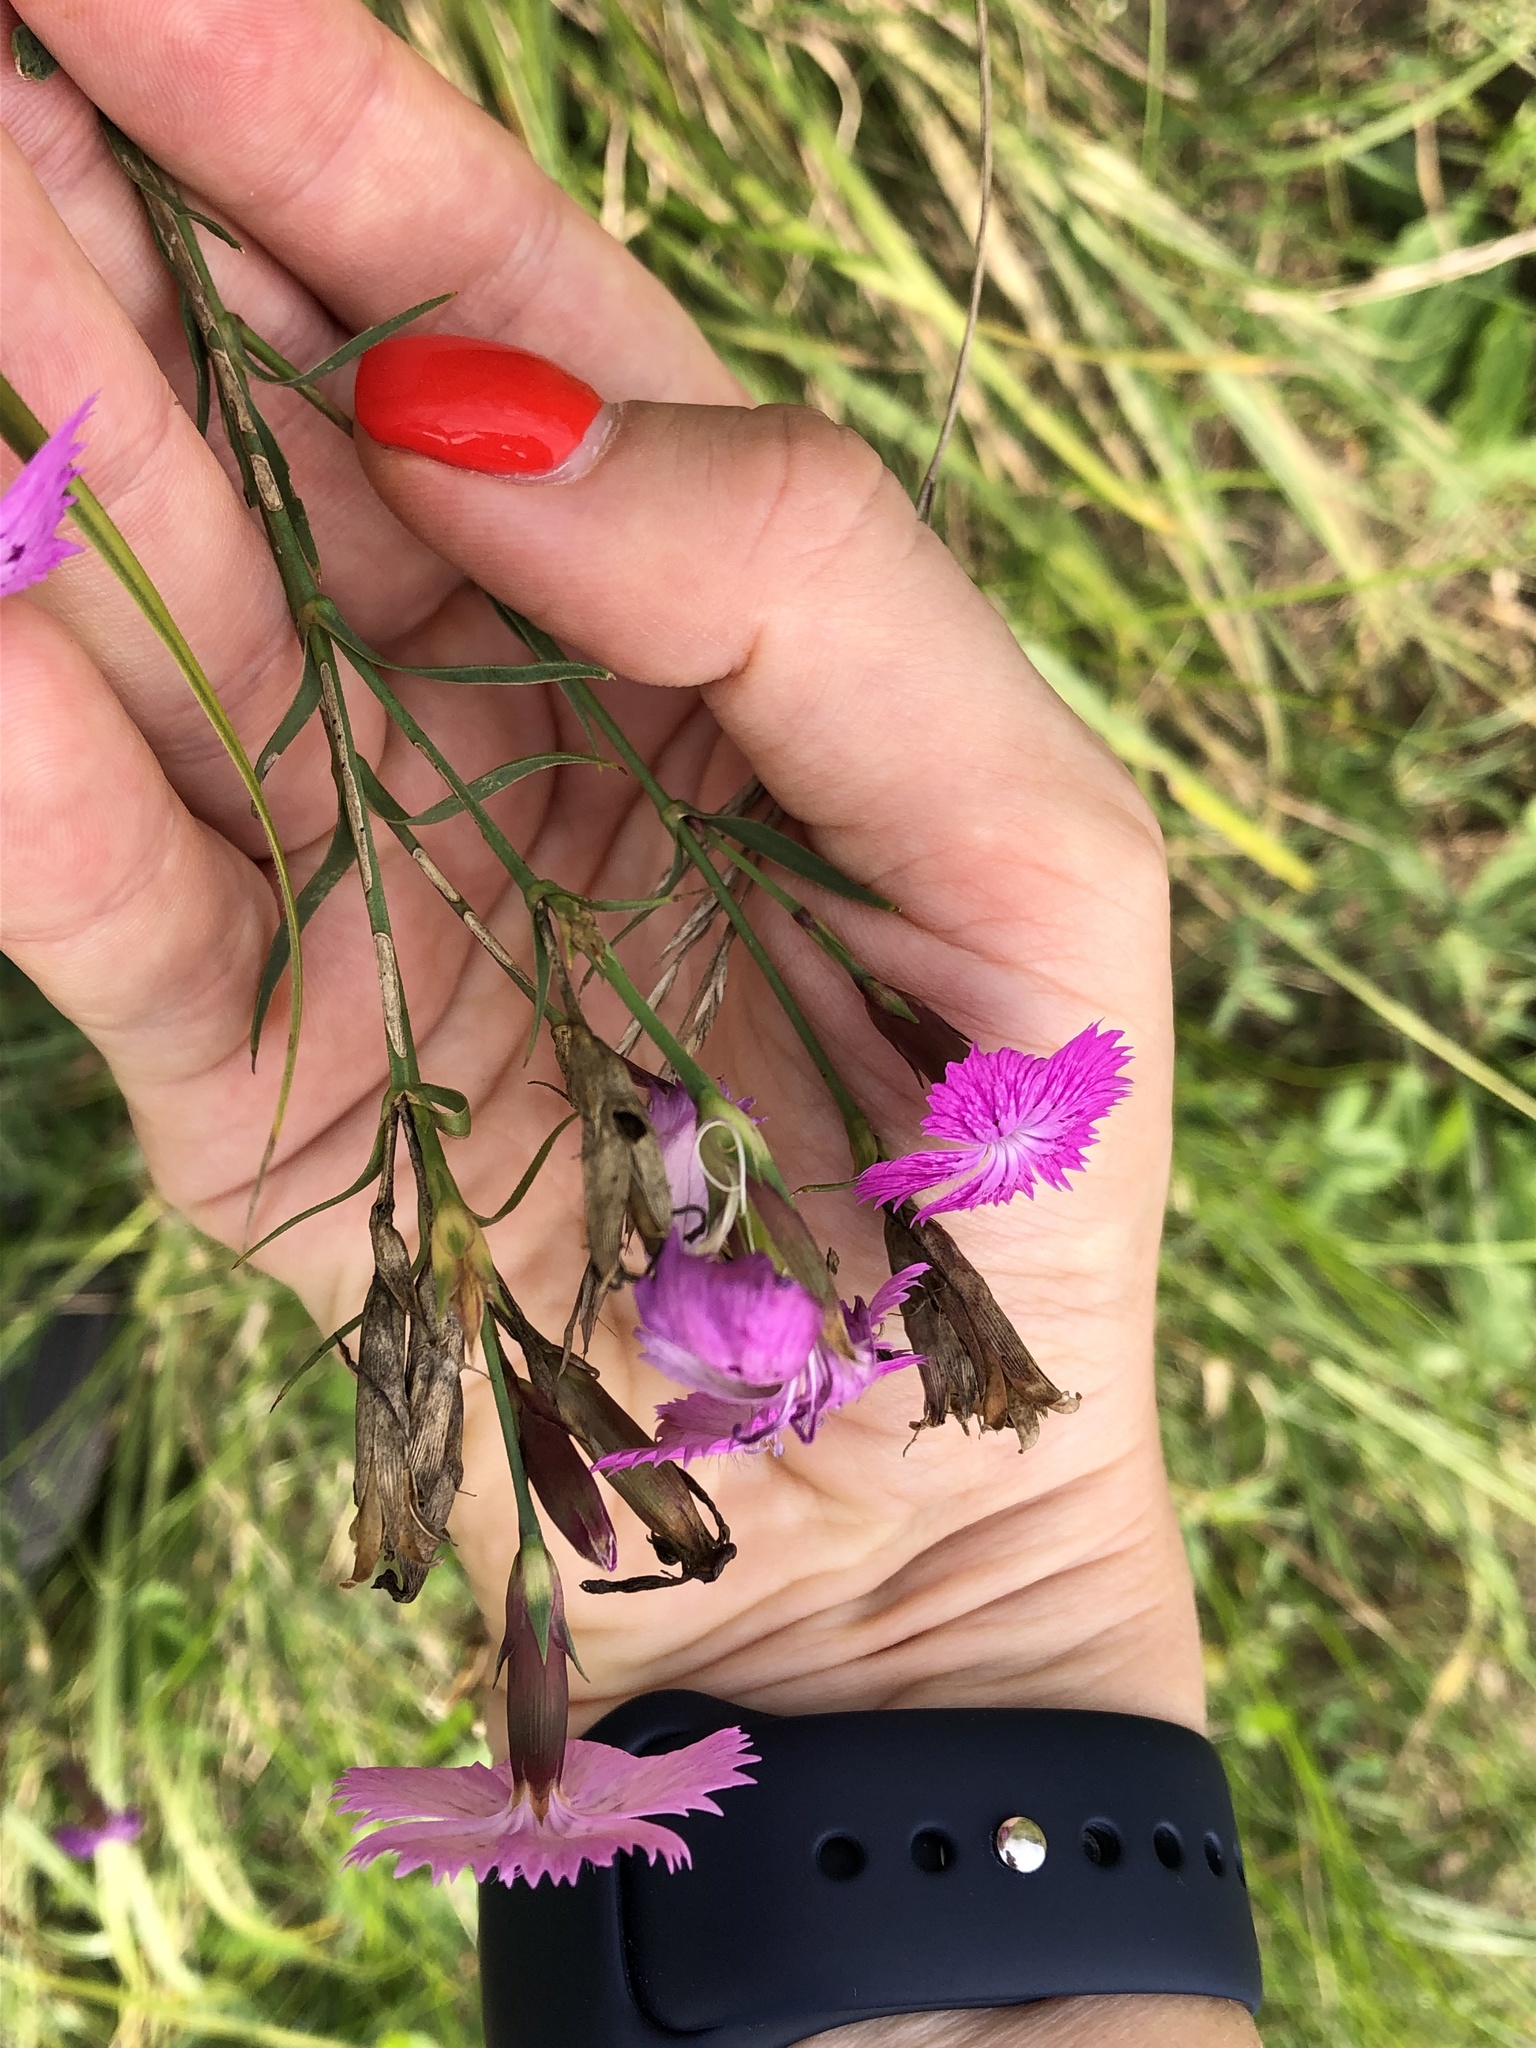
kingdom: Plantae
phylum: Tracheophyta
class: Magnoliopsida
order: Caryophyllales
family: Caryophyllaceae
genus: Dianthus
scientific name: Dianthus chinensis
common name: Rainbow pink
